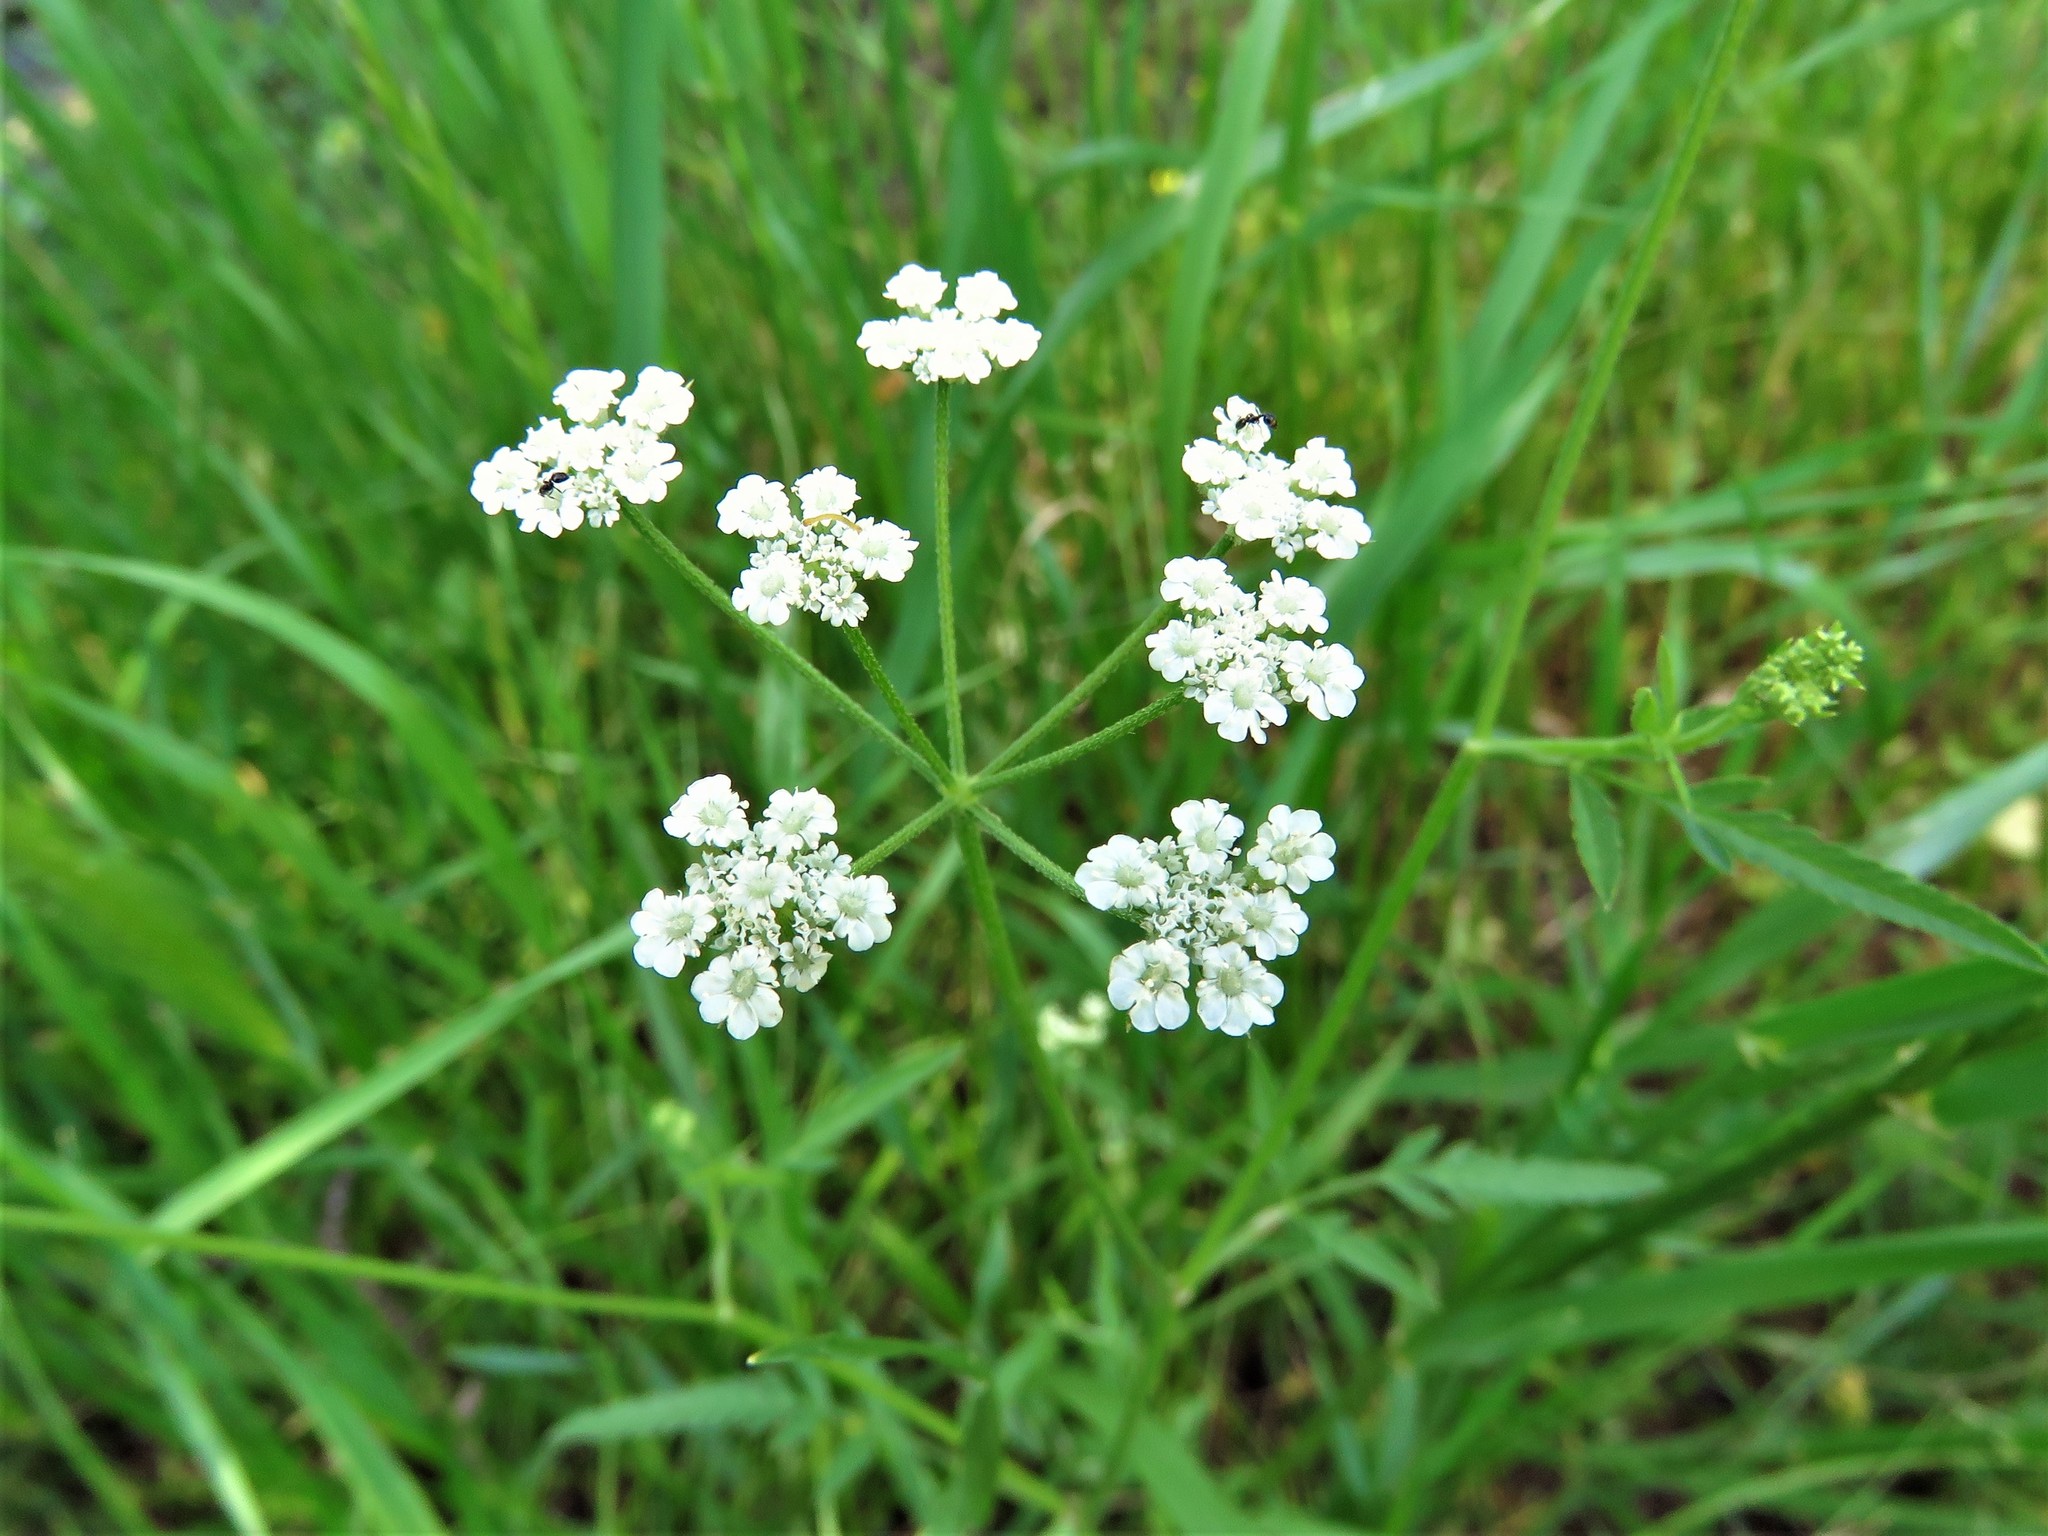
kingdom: Plantae
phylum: Tracheophyta
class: Magnoliopsida
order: Apiales
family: Apiaceae
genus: Torilis
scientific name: Torilis arvensis
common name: Spreading hedge-parsley
